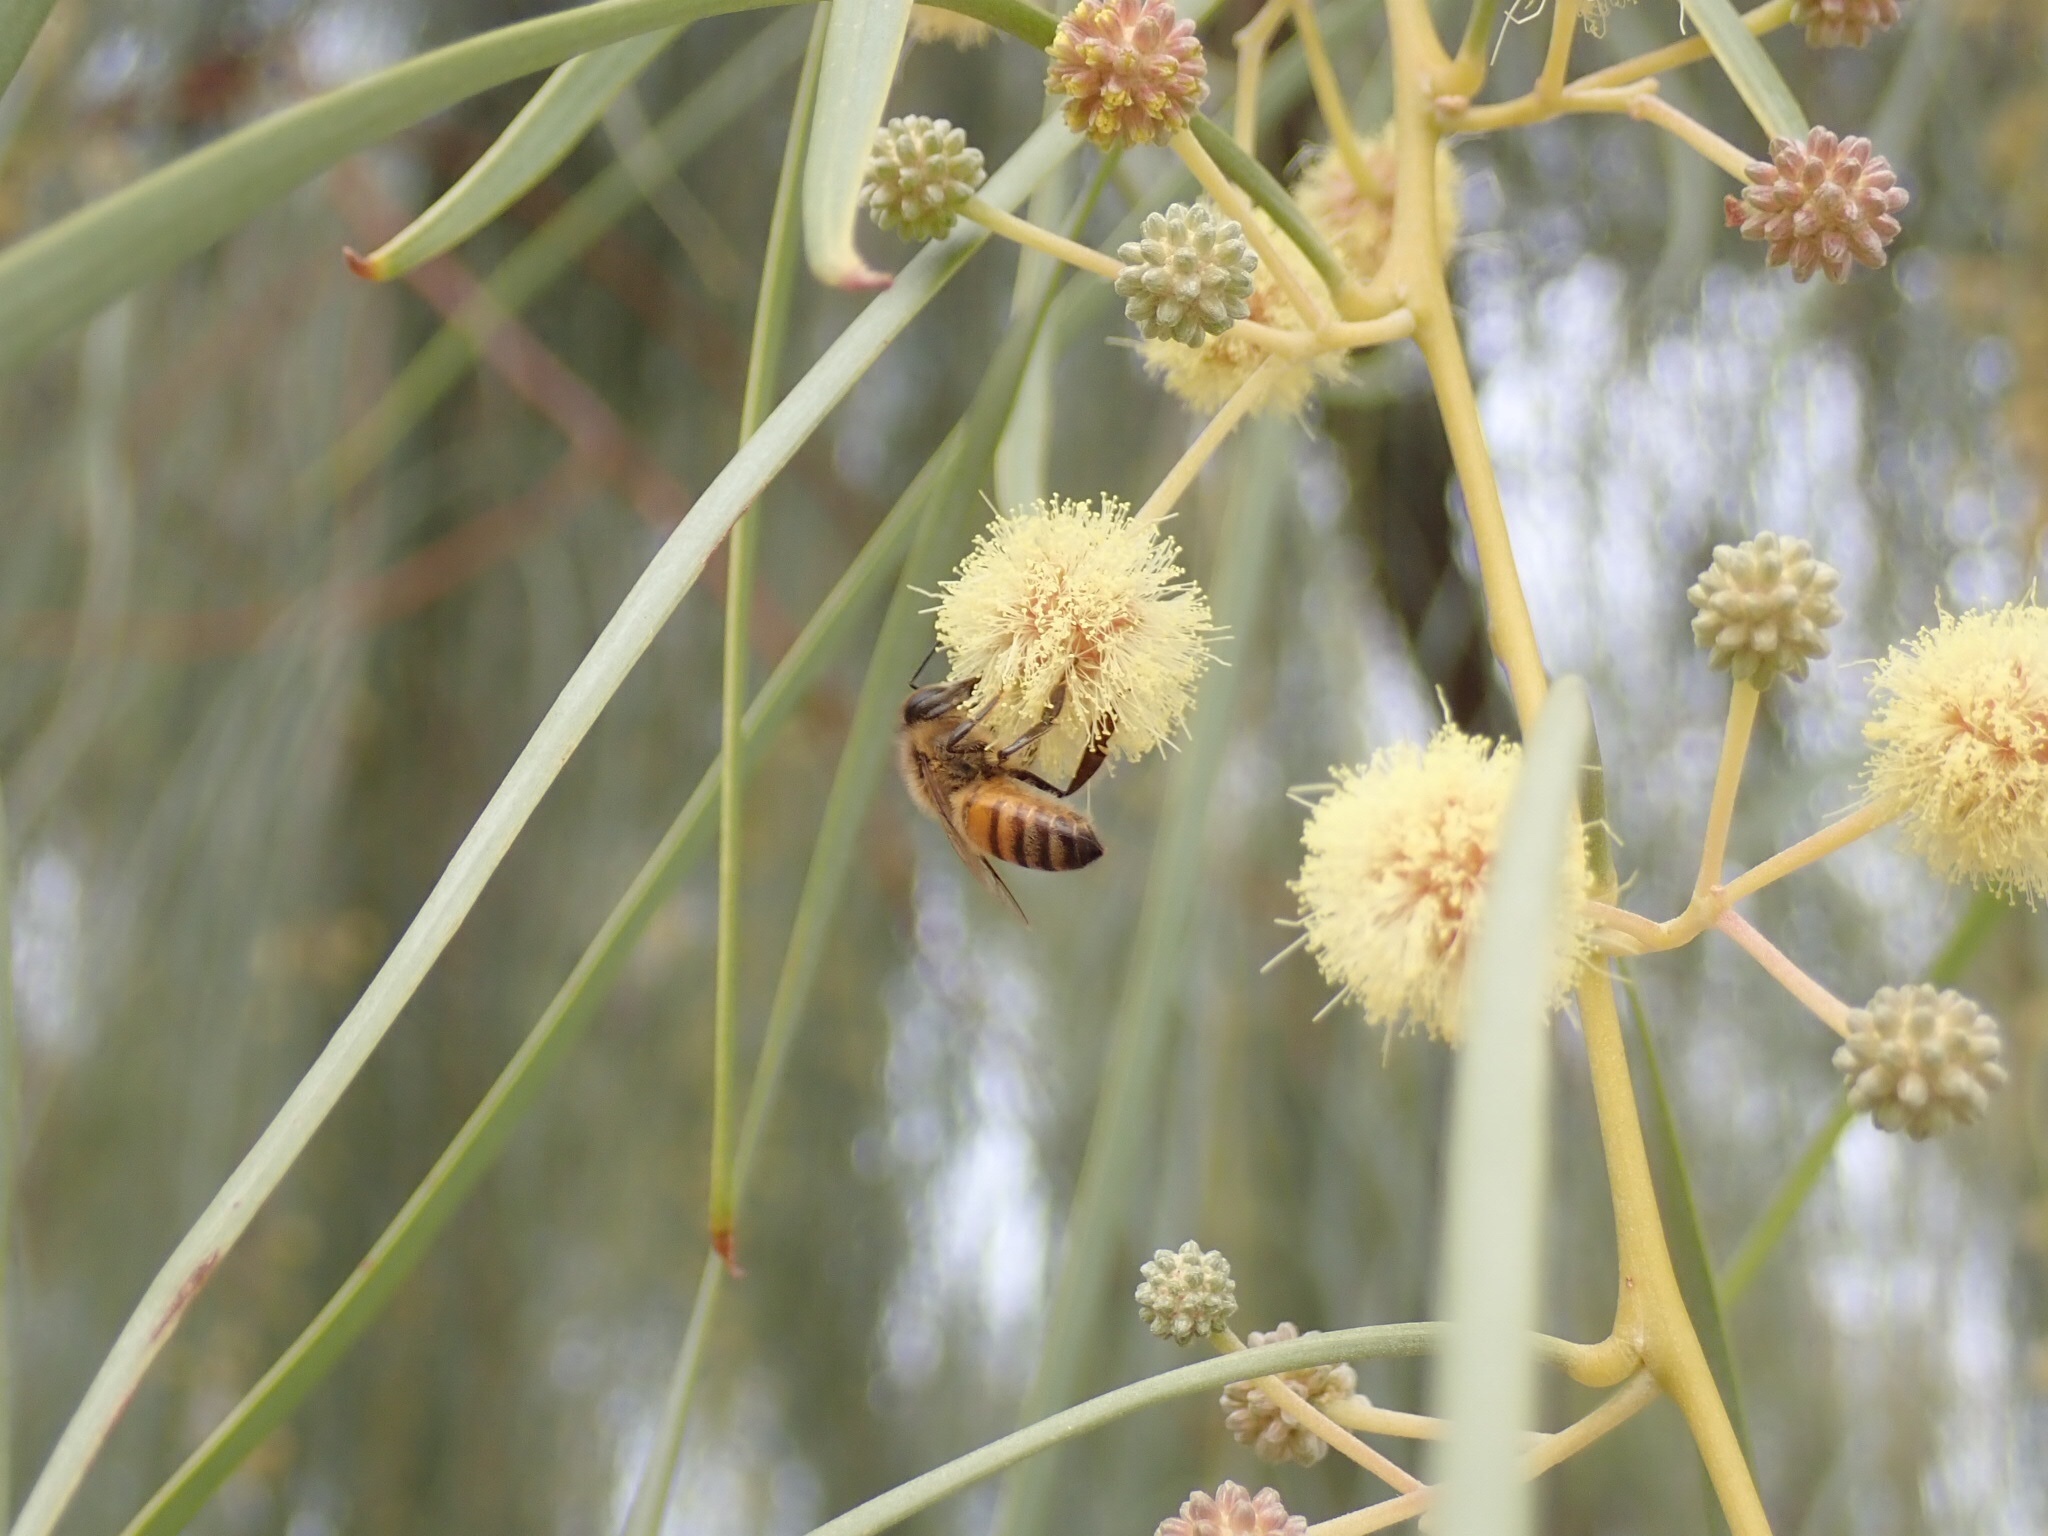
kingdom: Animalia
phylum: Arthropoda
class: Insecta
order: Hymenoptera
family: Apidae
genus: Apis
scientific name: Apis mellifera
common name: Honey bee
